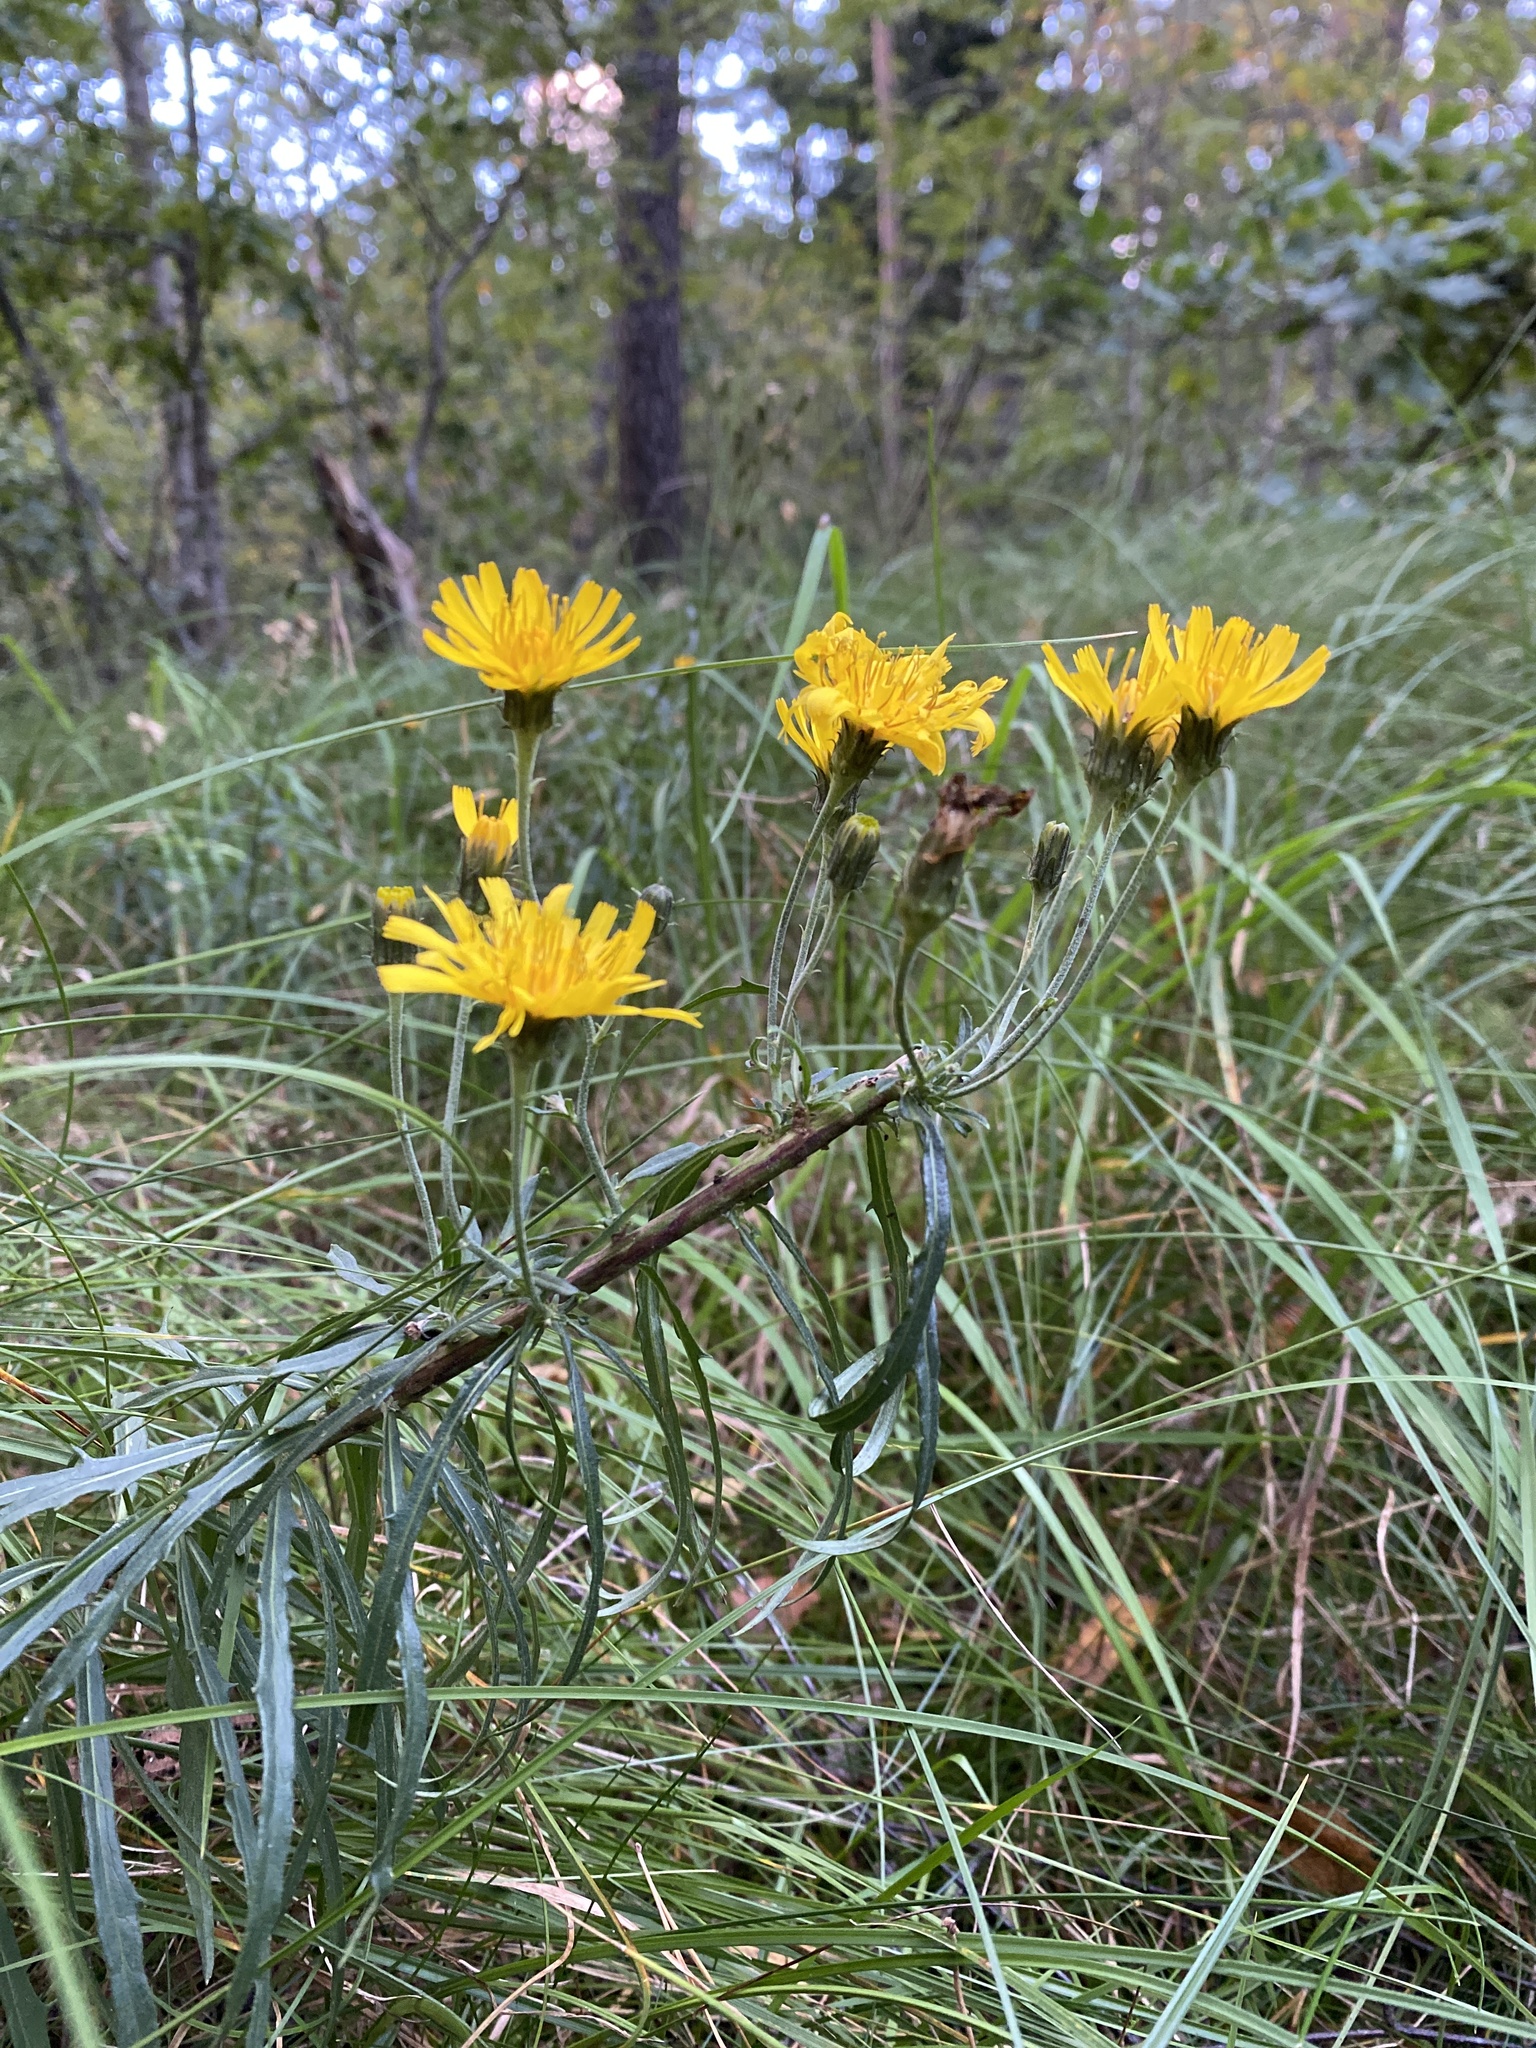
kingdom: Plantae
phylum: Tracheophyta
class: Magnoliopsida
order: Asterales
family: Asteraceae
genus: Hieracium
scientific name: Hieracium umbellatum
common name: Northern hawkweed
